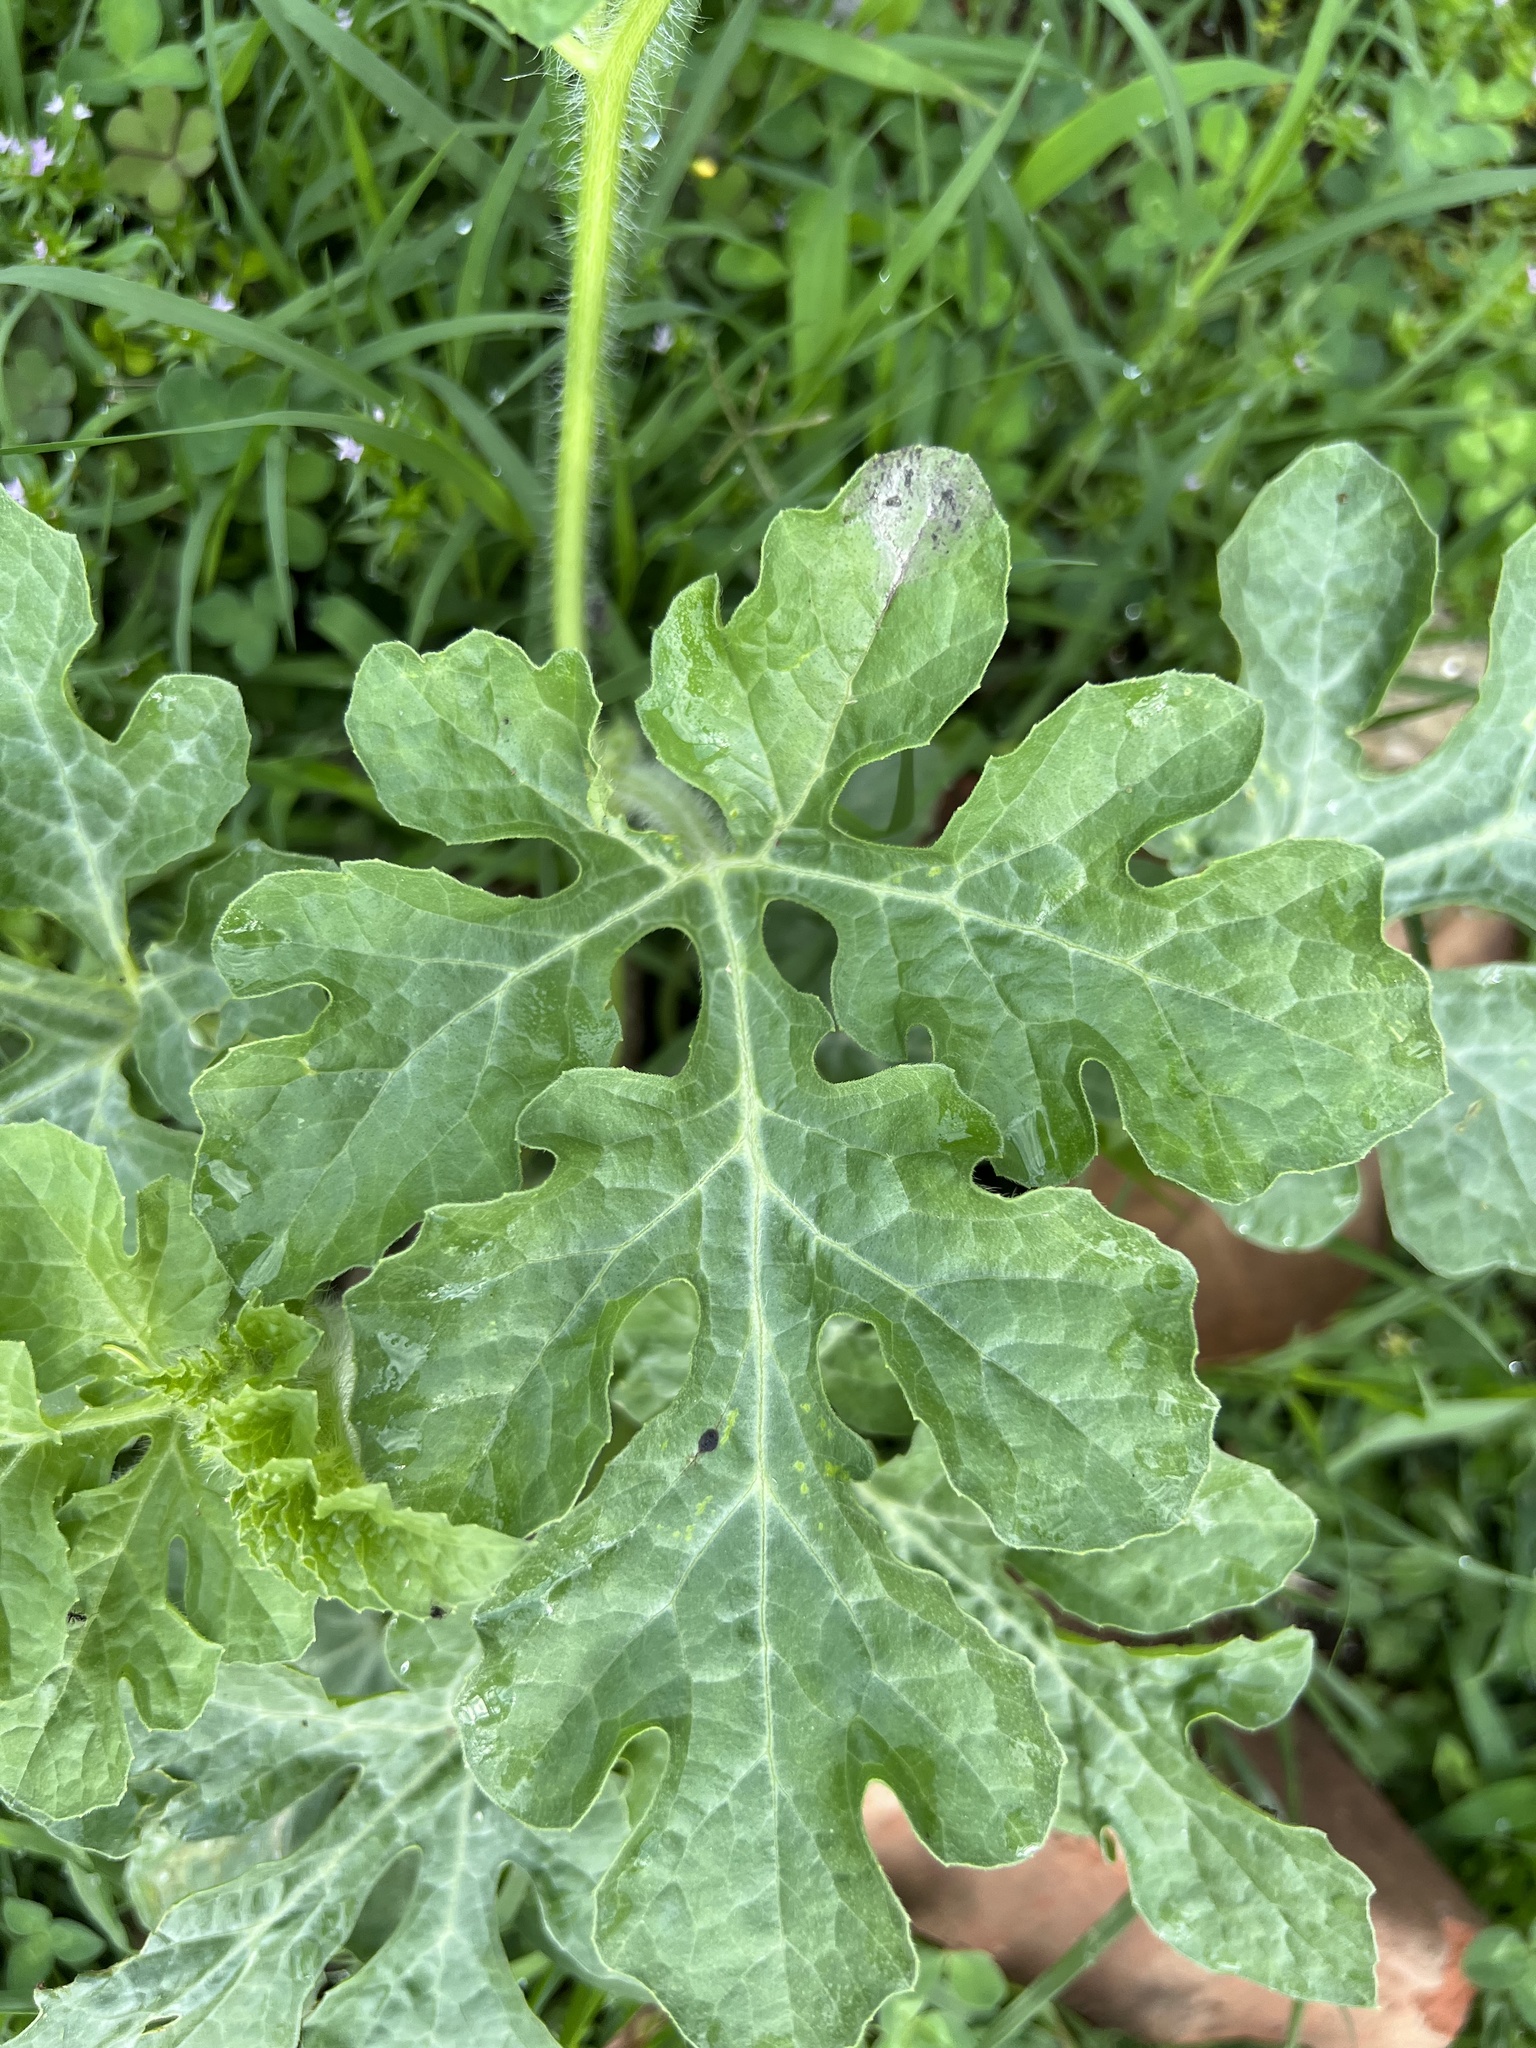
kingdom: Plantae
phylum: Tracheophyta
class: Magnoliopsida
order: Cucurbitales
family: Cucurbitaceae
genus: Citrullus
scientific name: Citrullus lanatus
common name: Watermelon
